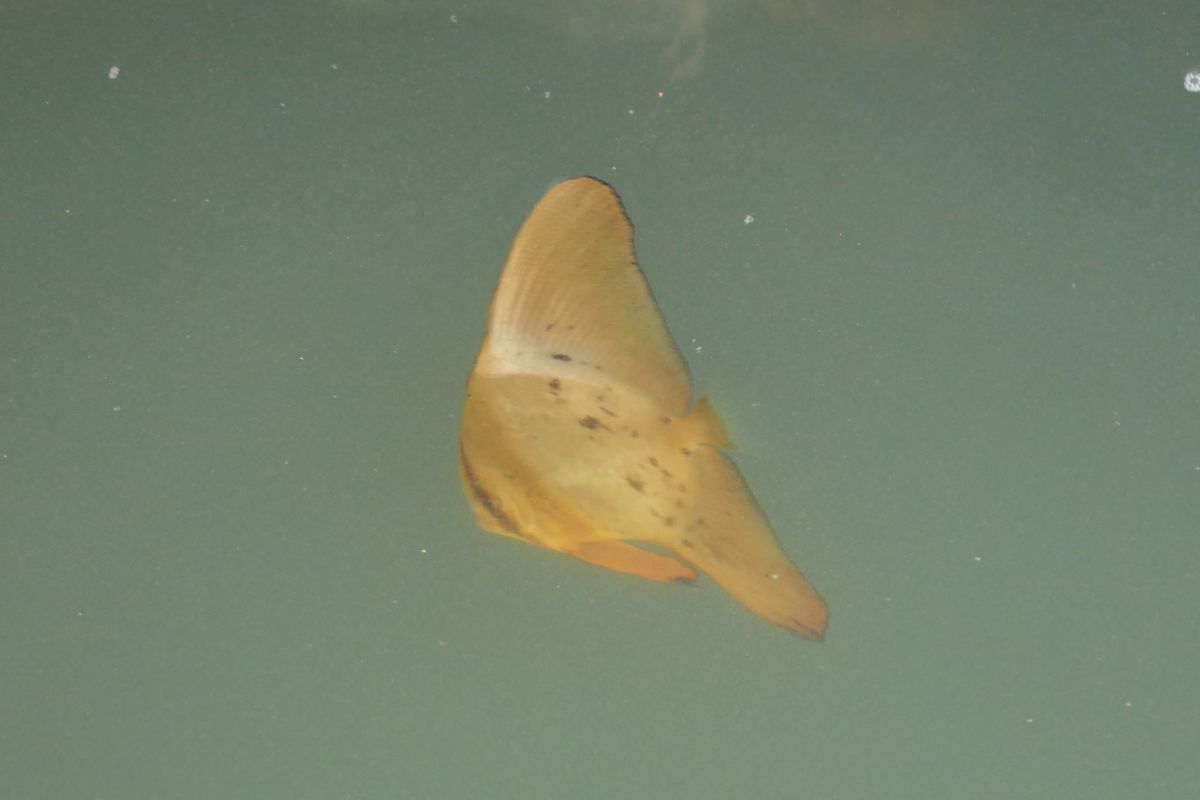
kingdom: Animalia
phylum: Chordata
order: Perciformes
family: Ephippidae
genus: Platax
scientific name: Platax orbicularis
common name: Batfish
